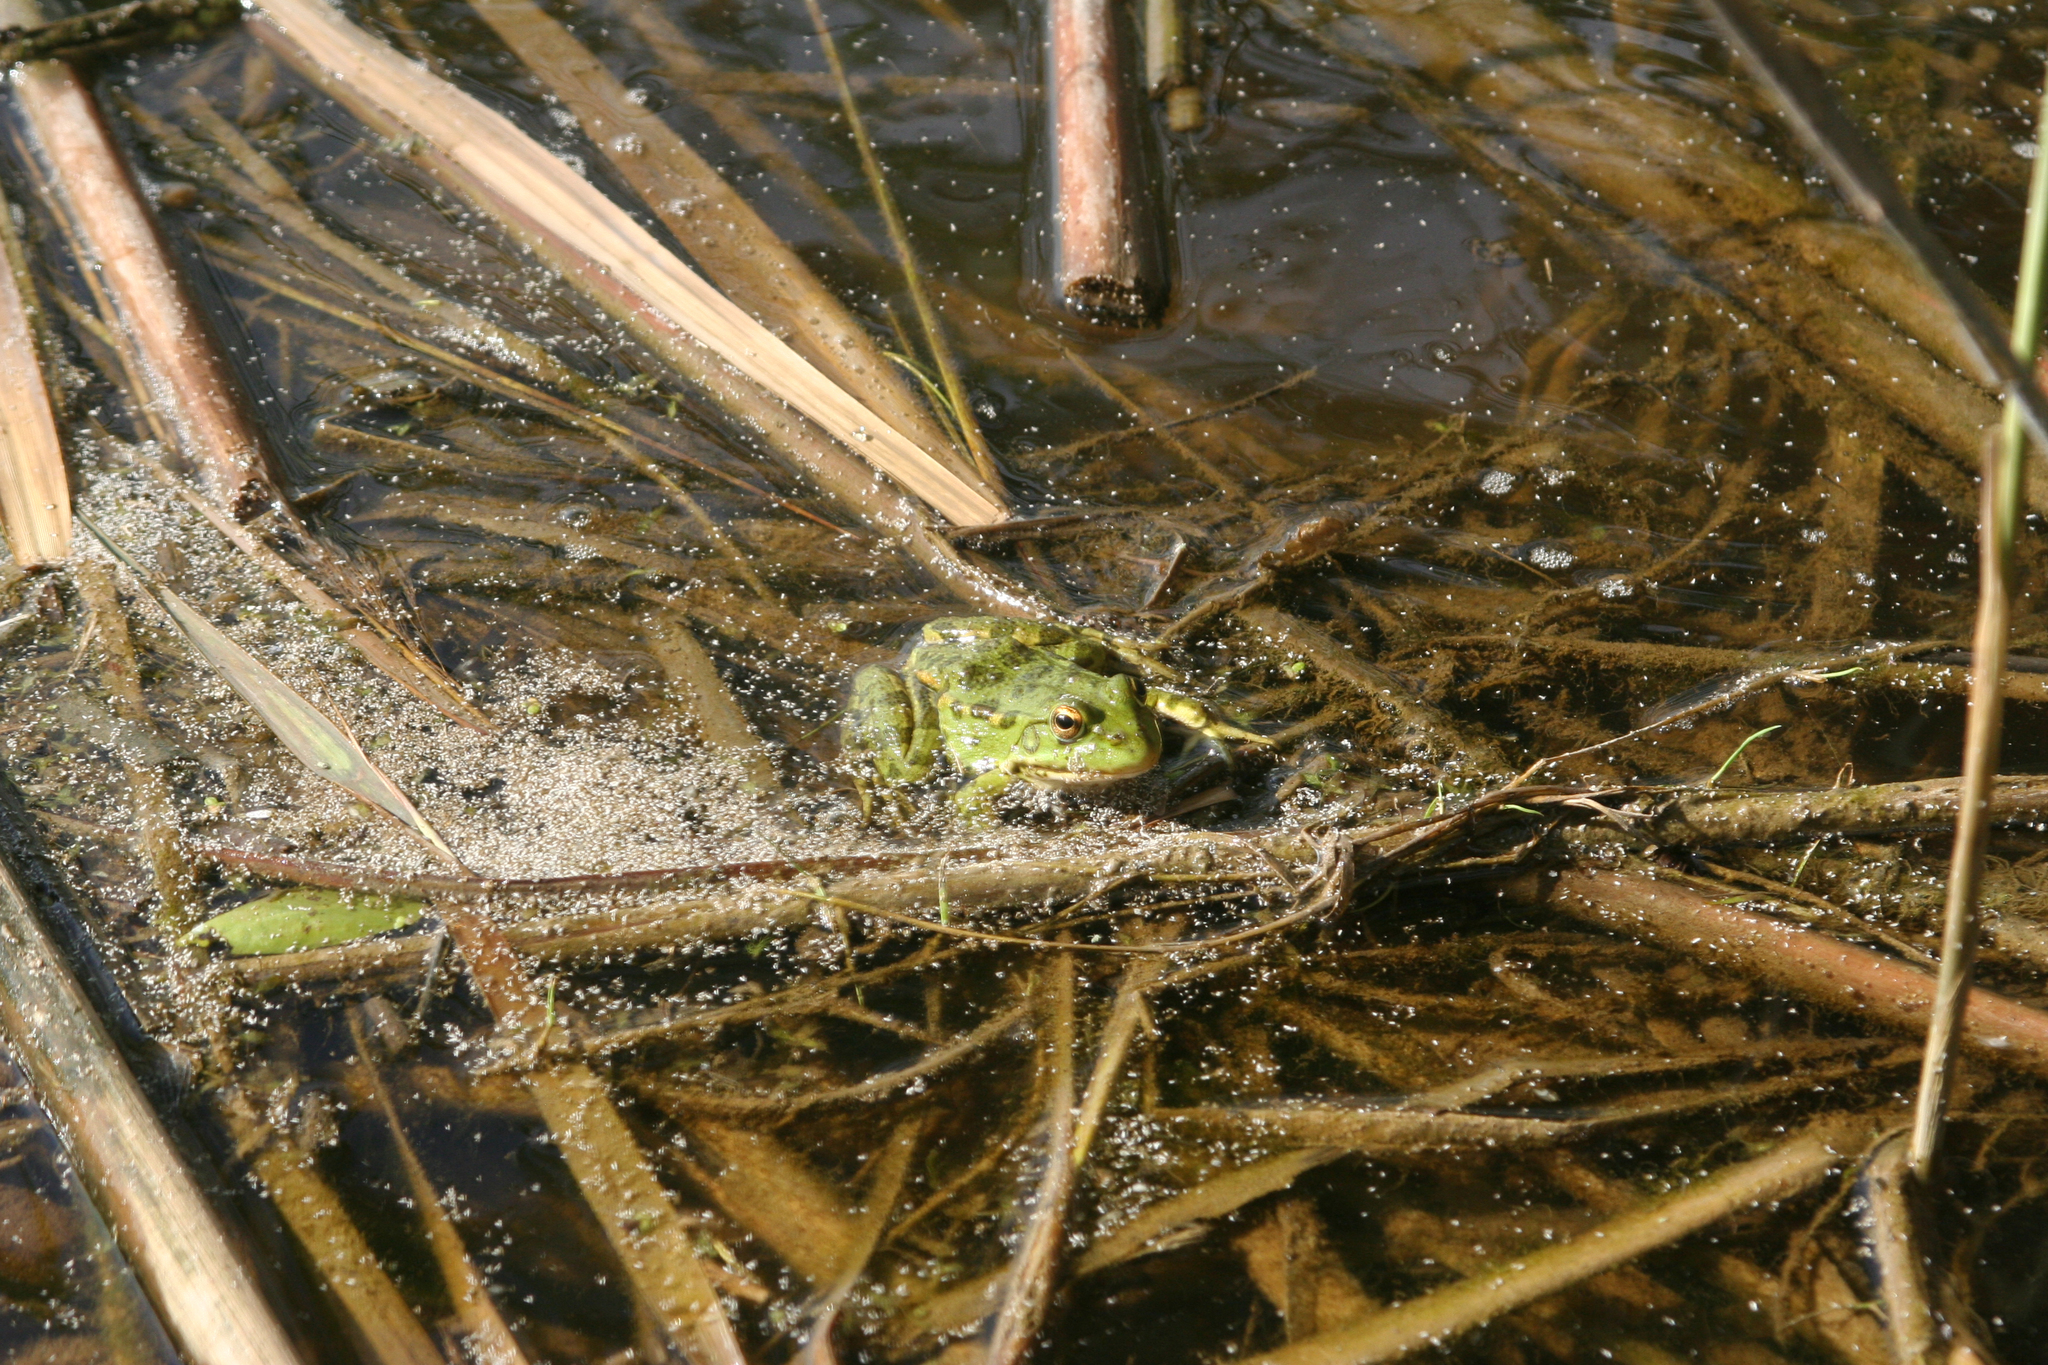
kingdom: Animalia
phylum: Chordata
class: Amphibia
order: Anura
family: Ranidae
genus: Pelophylax
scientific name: Pelophylax ridibundus
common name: Marsh frog
